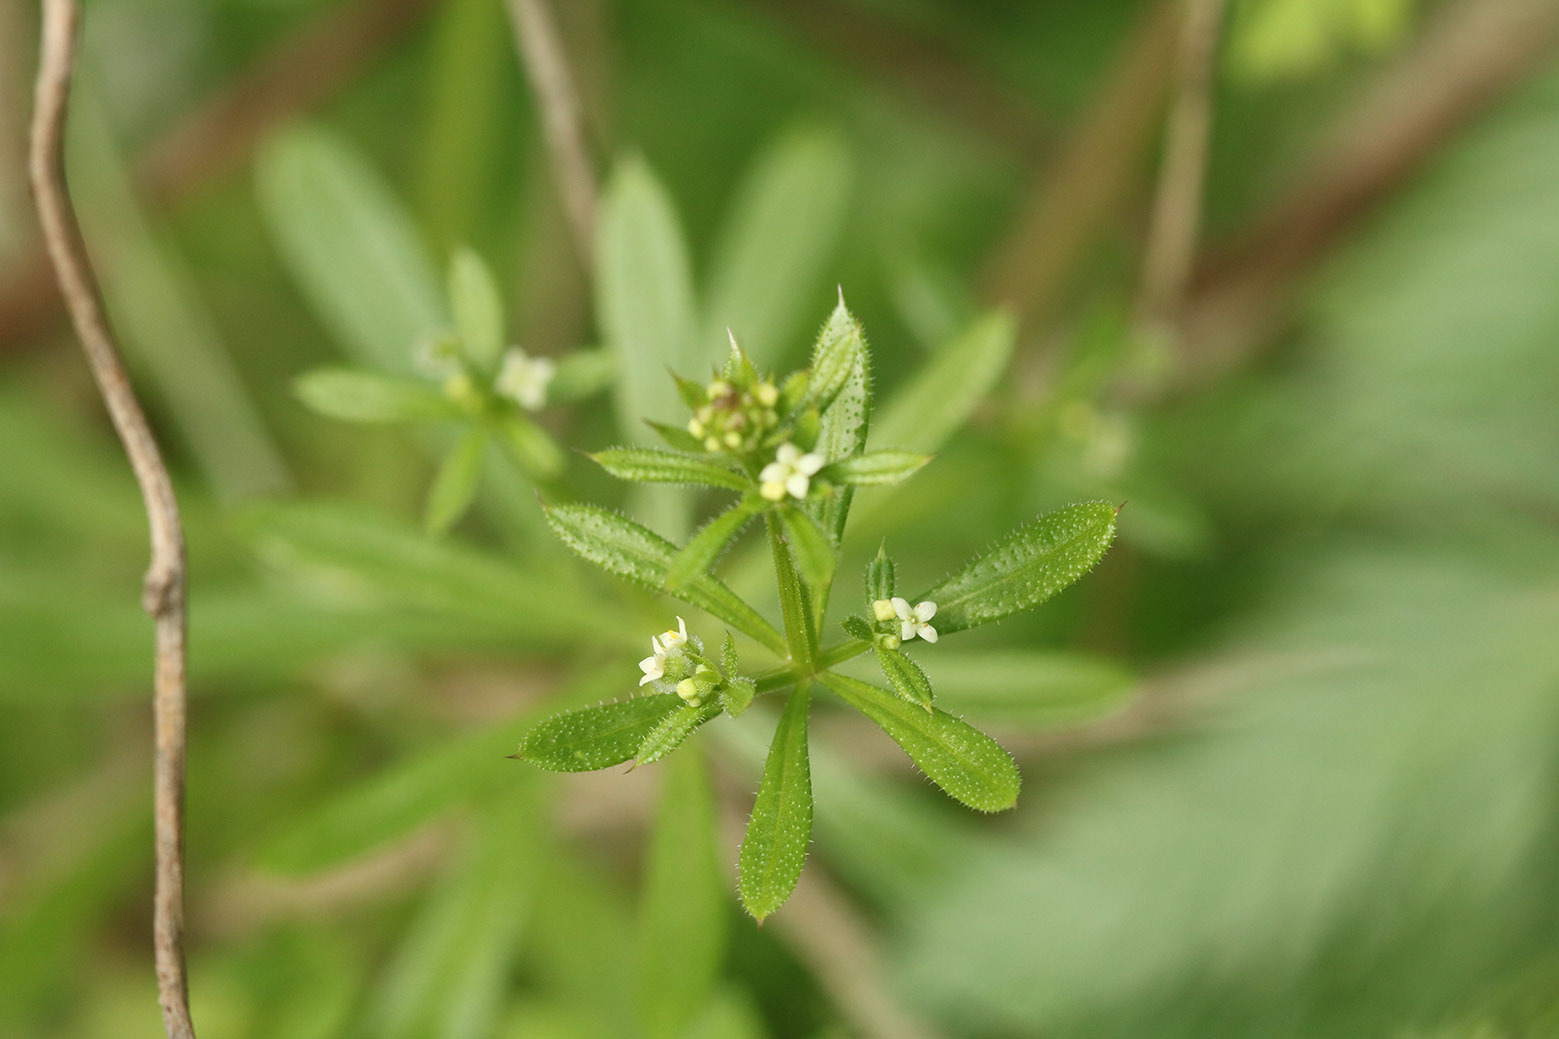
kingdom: Plantae
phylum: Tracheophyta
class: Magnoliopsida
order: Gentianales
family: Rubiaceae
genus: Galium
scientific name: Galium aparine
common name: Cleavers
